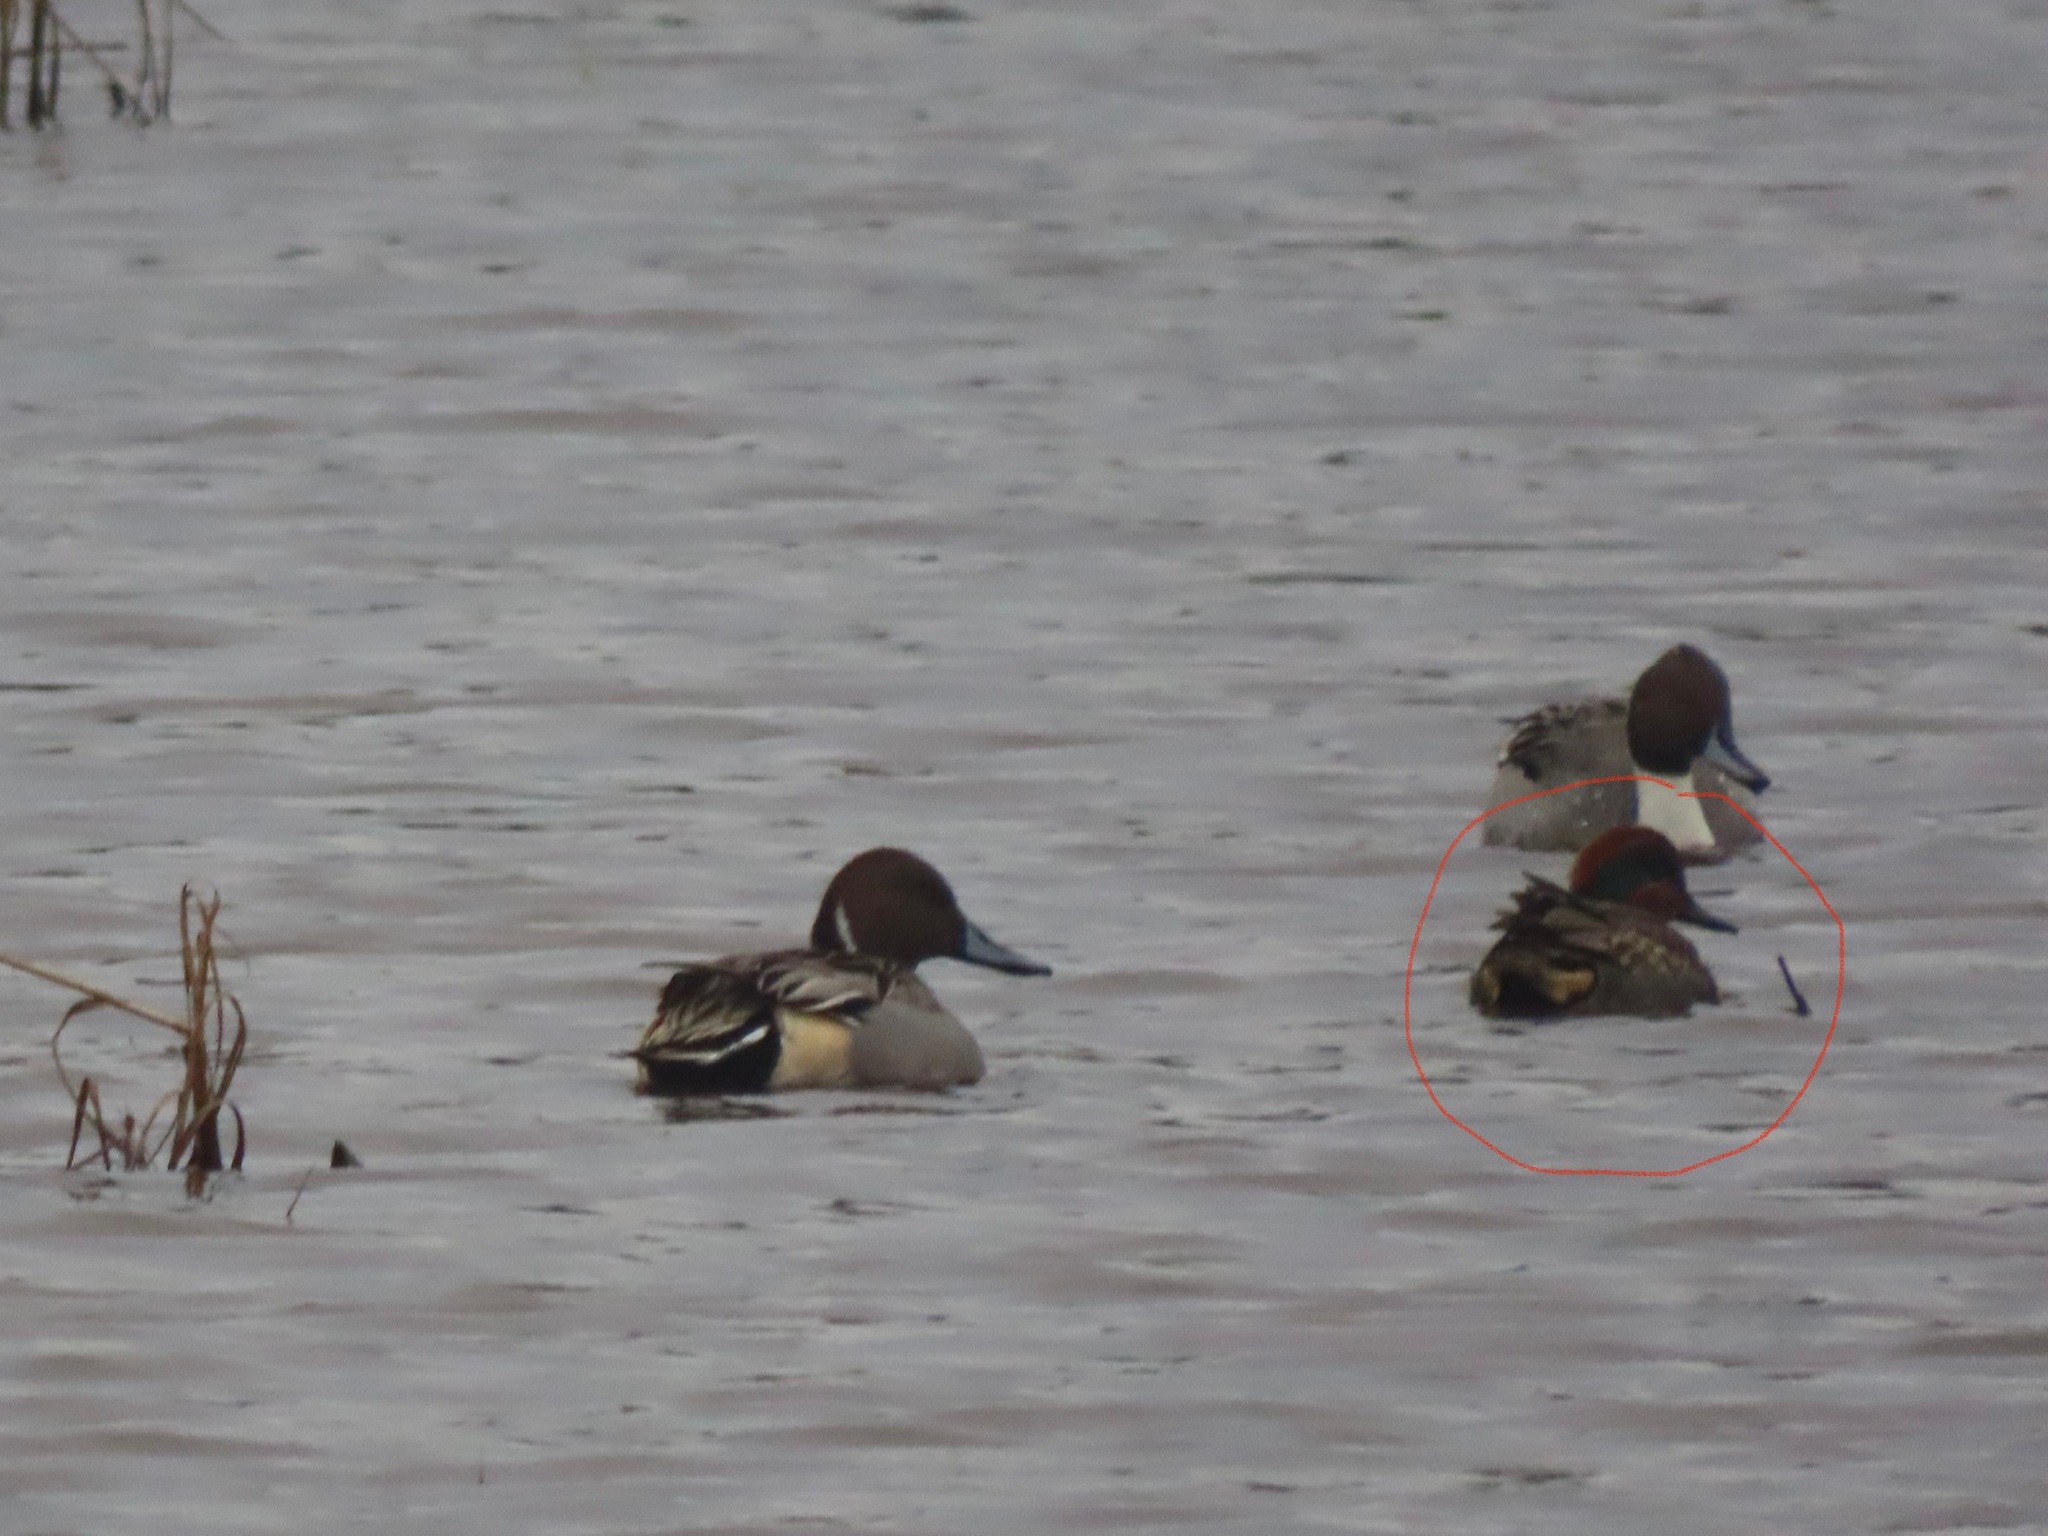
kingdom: Animalia
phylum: Chordata
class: Aves
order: Anseriformes
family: Anatidae
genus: Anas
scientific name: Anas crecca
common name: Eurasian teal
